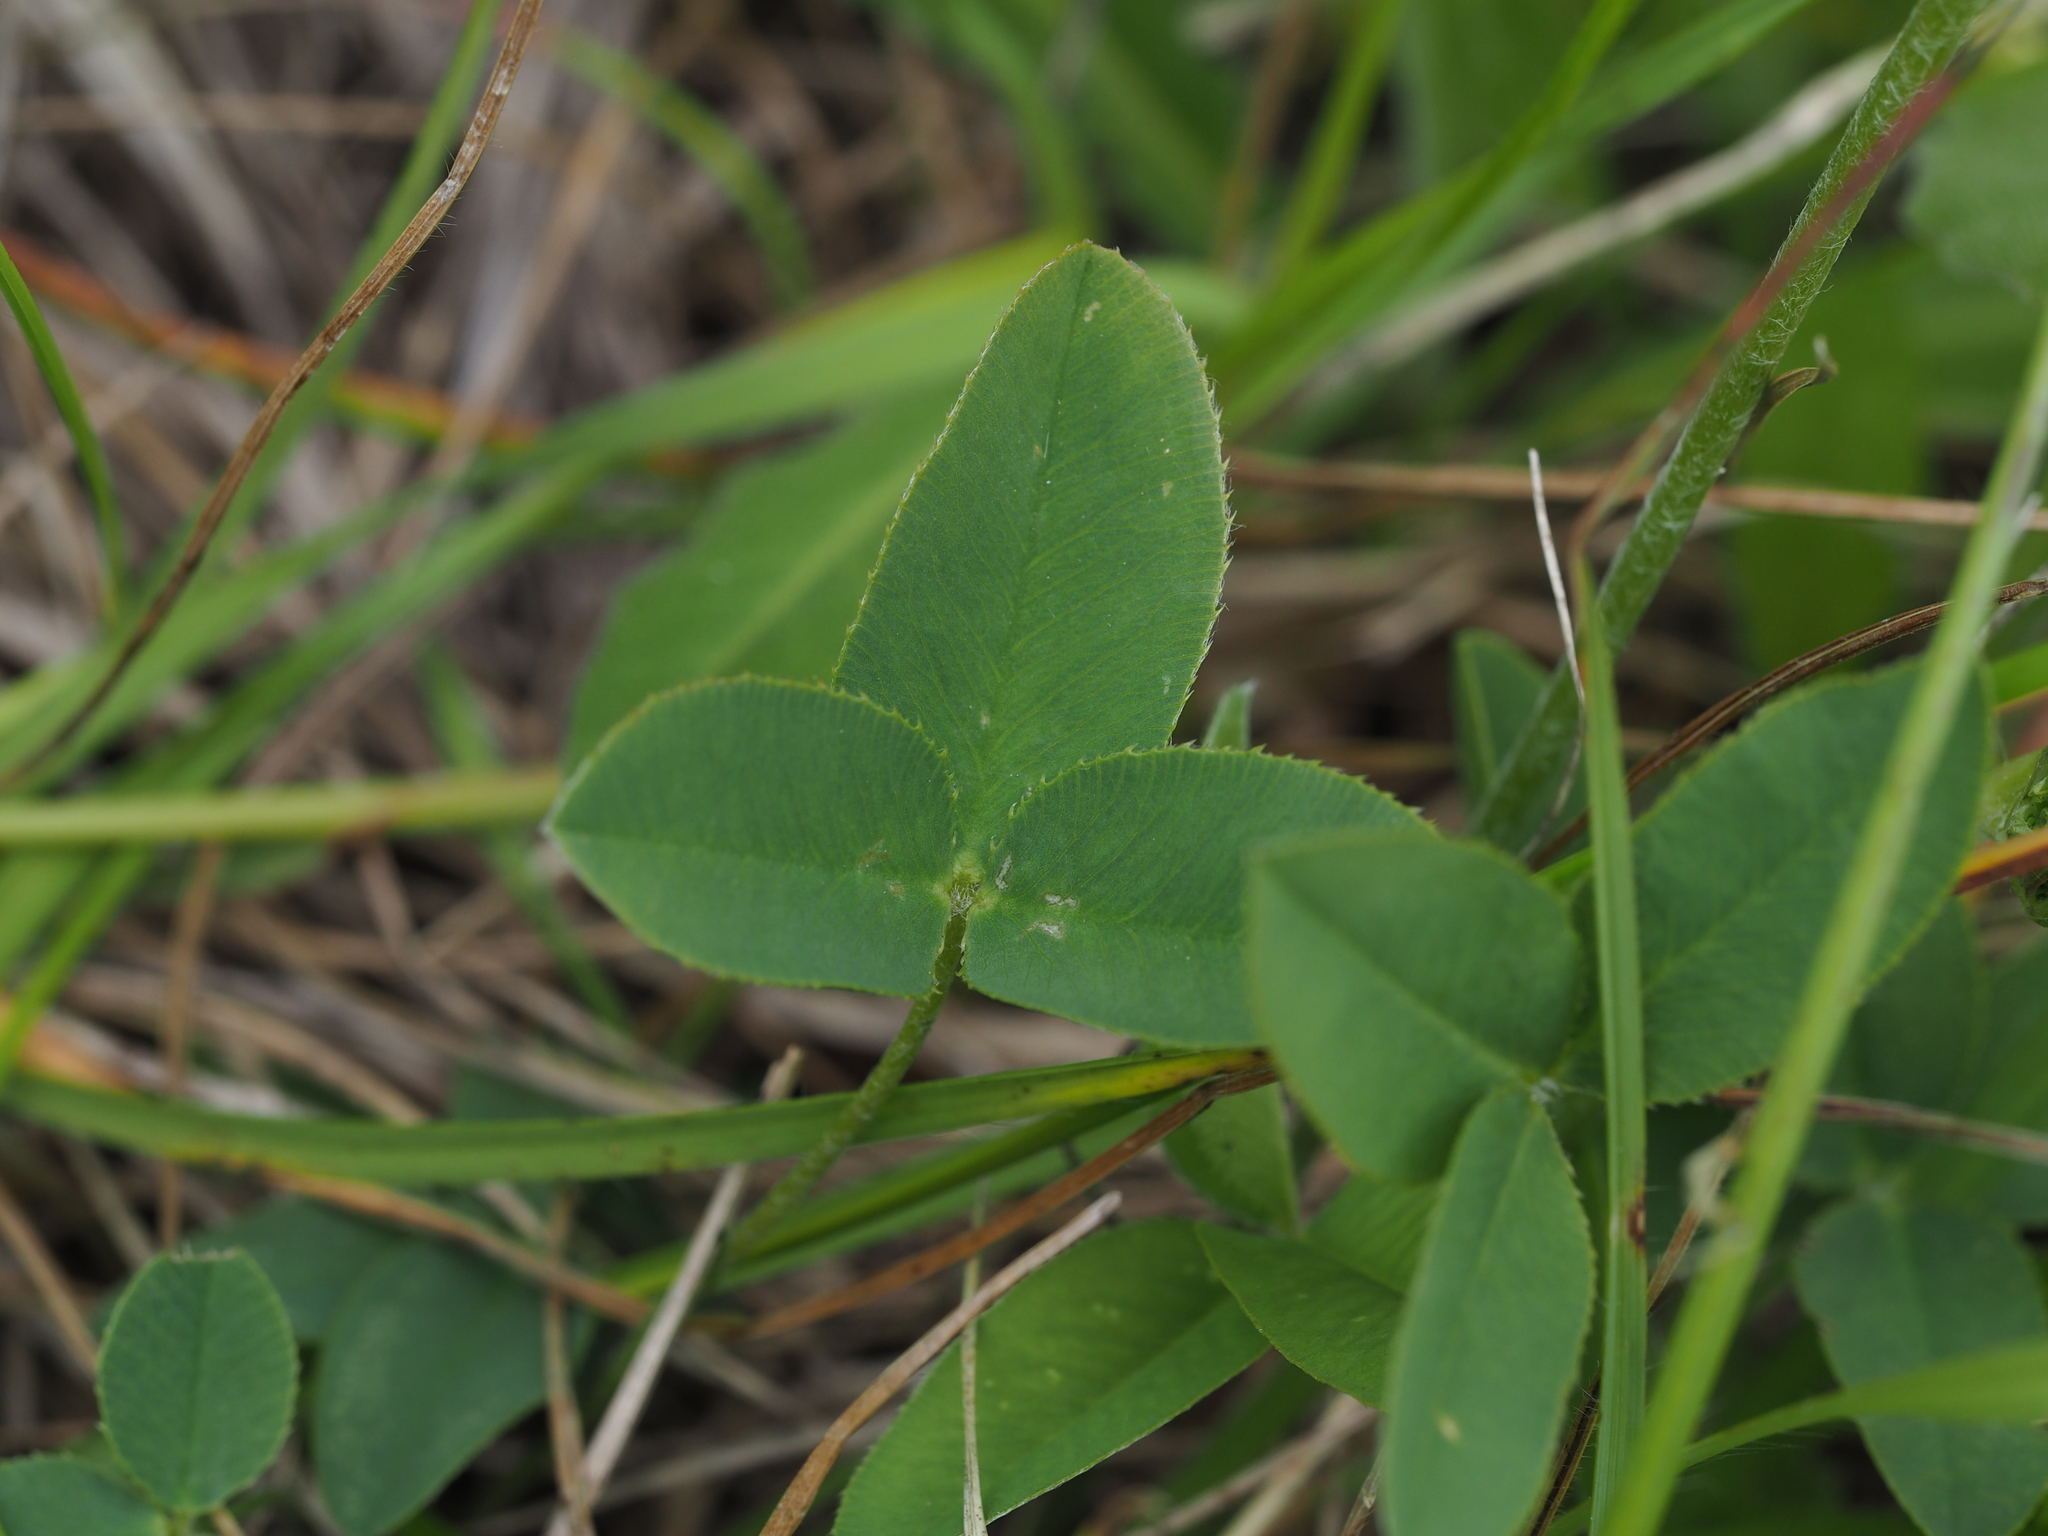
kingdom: Plantae
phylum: Tracheophyta
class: Magnoliopsida
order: Fabales
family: Fabaceae
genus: Trifolium
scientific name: Trifolium montanum
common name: Mountain clover
